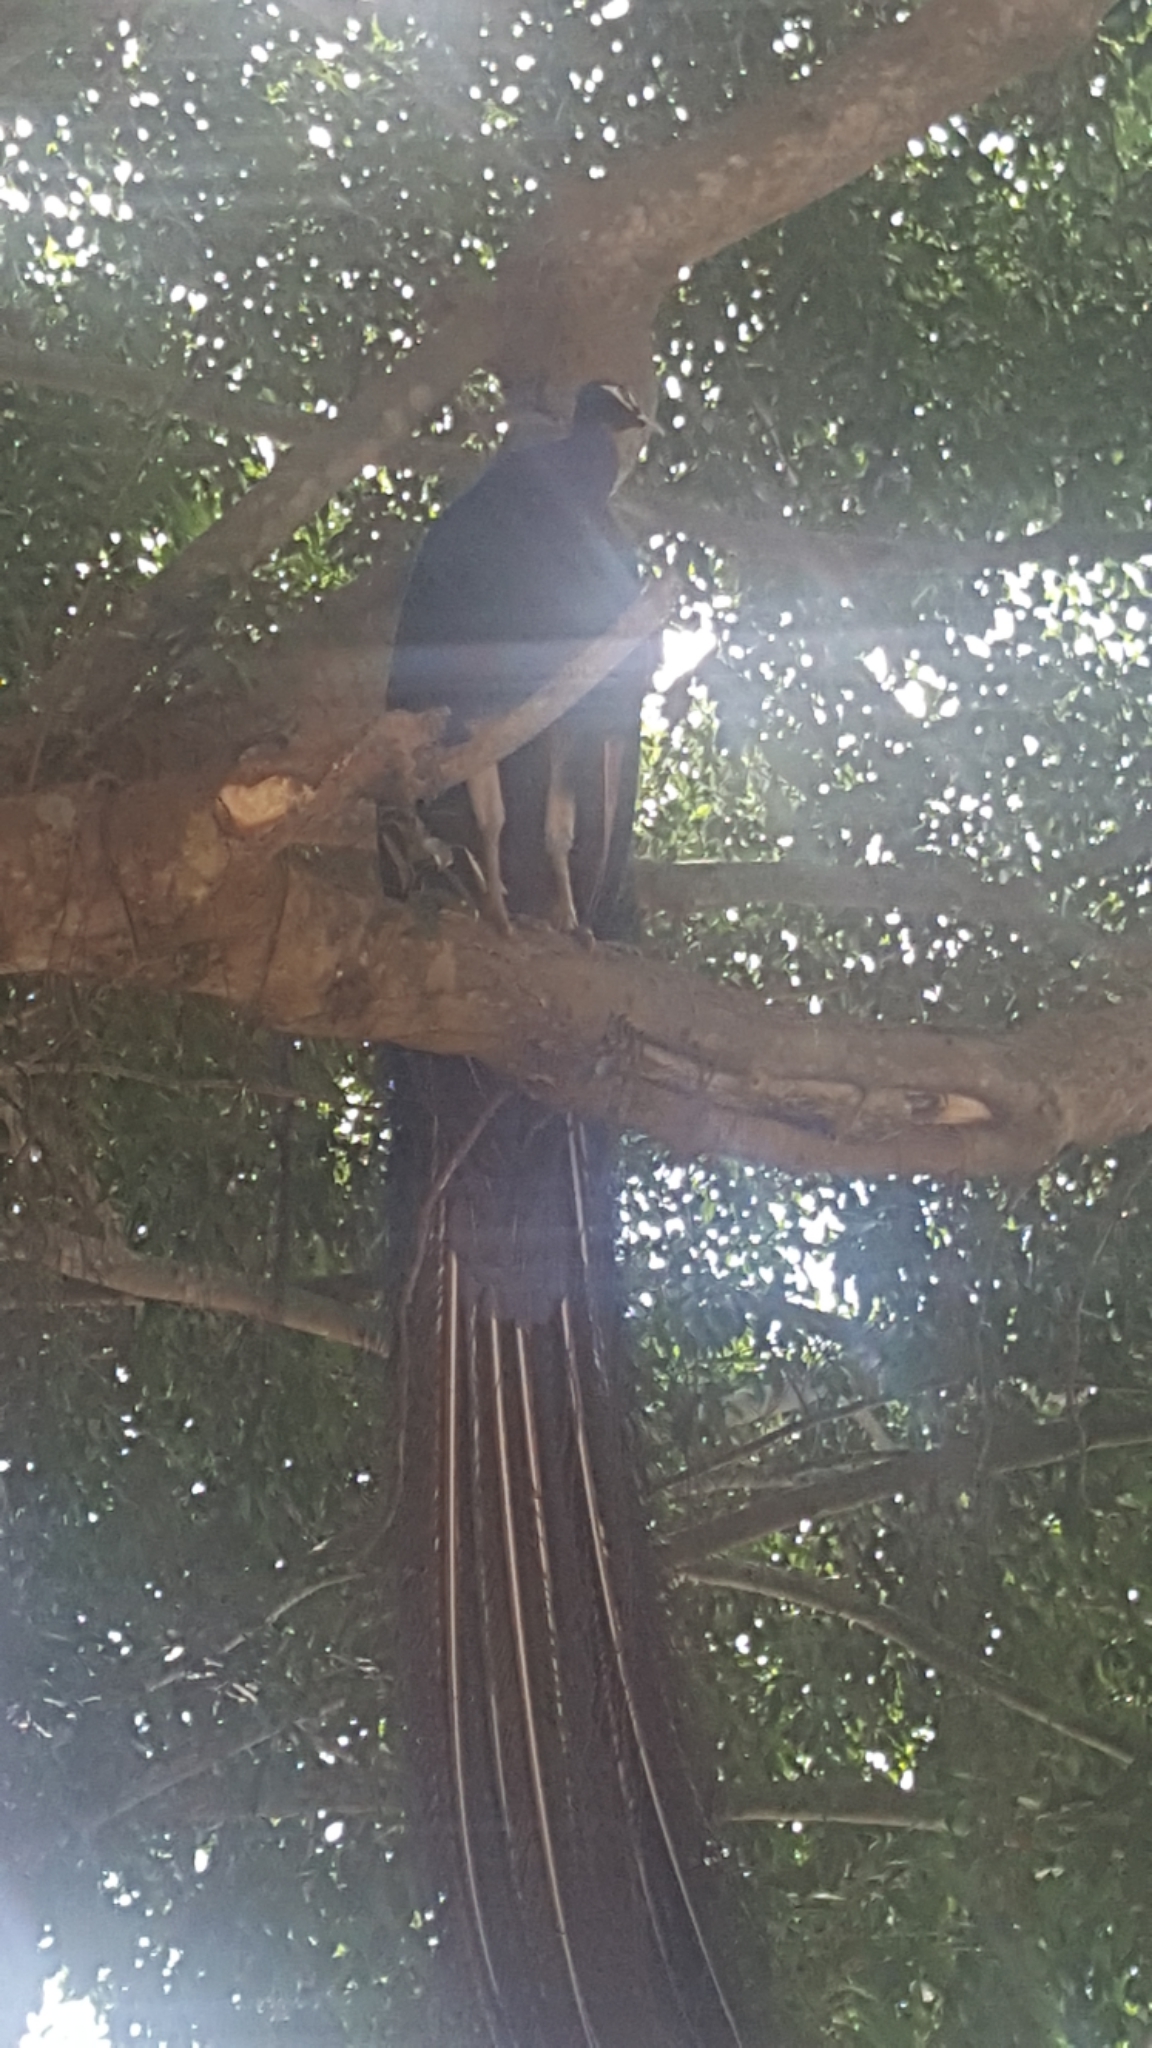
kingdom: Animalia
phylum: Chordata
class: Aves
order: Galliformes
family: Phasianidae
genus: Pavo
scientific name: Pavo cristatus
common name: Indian peafowl
